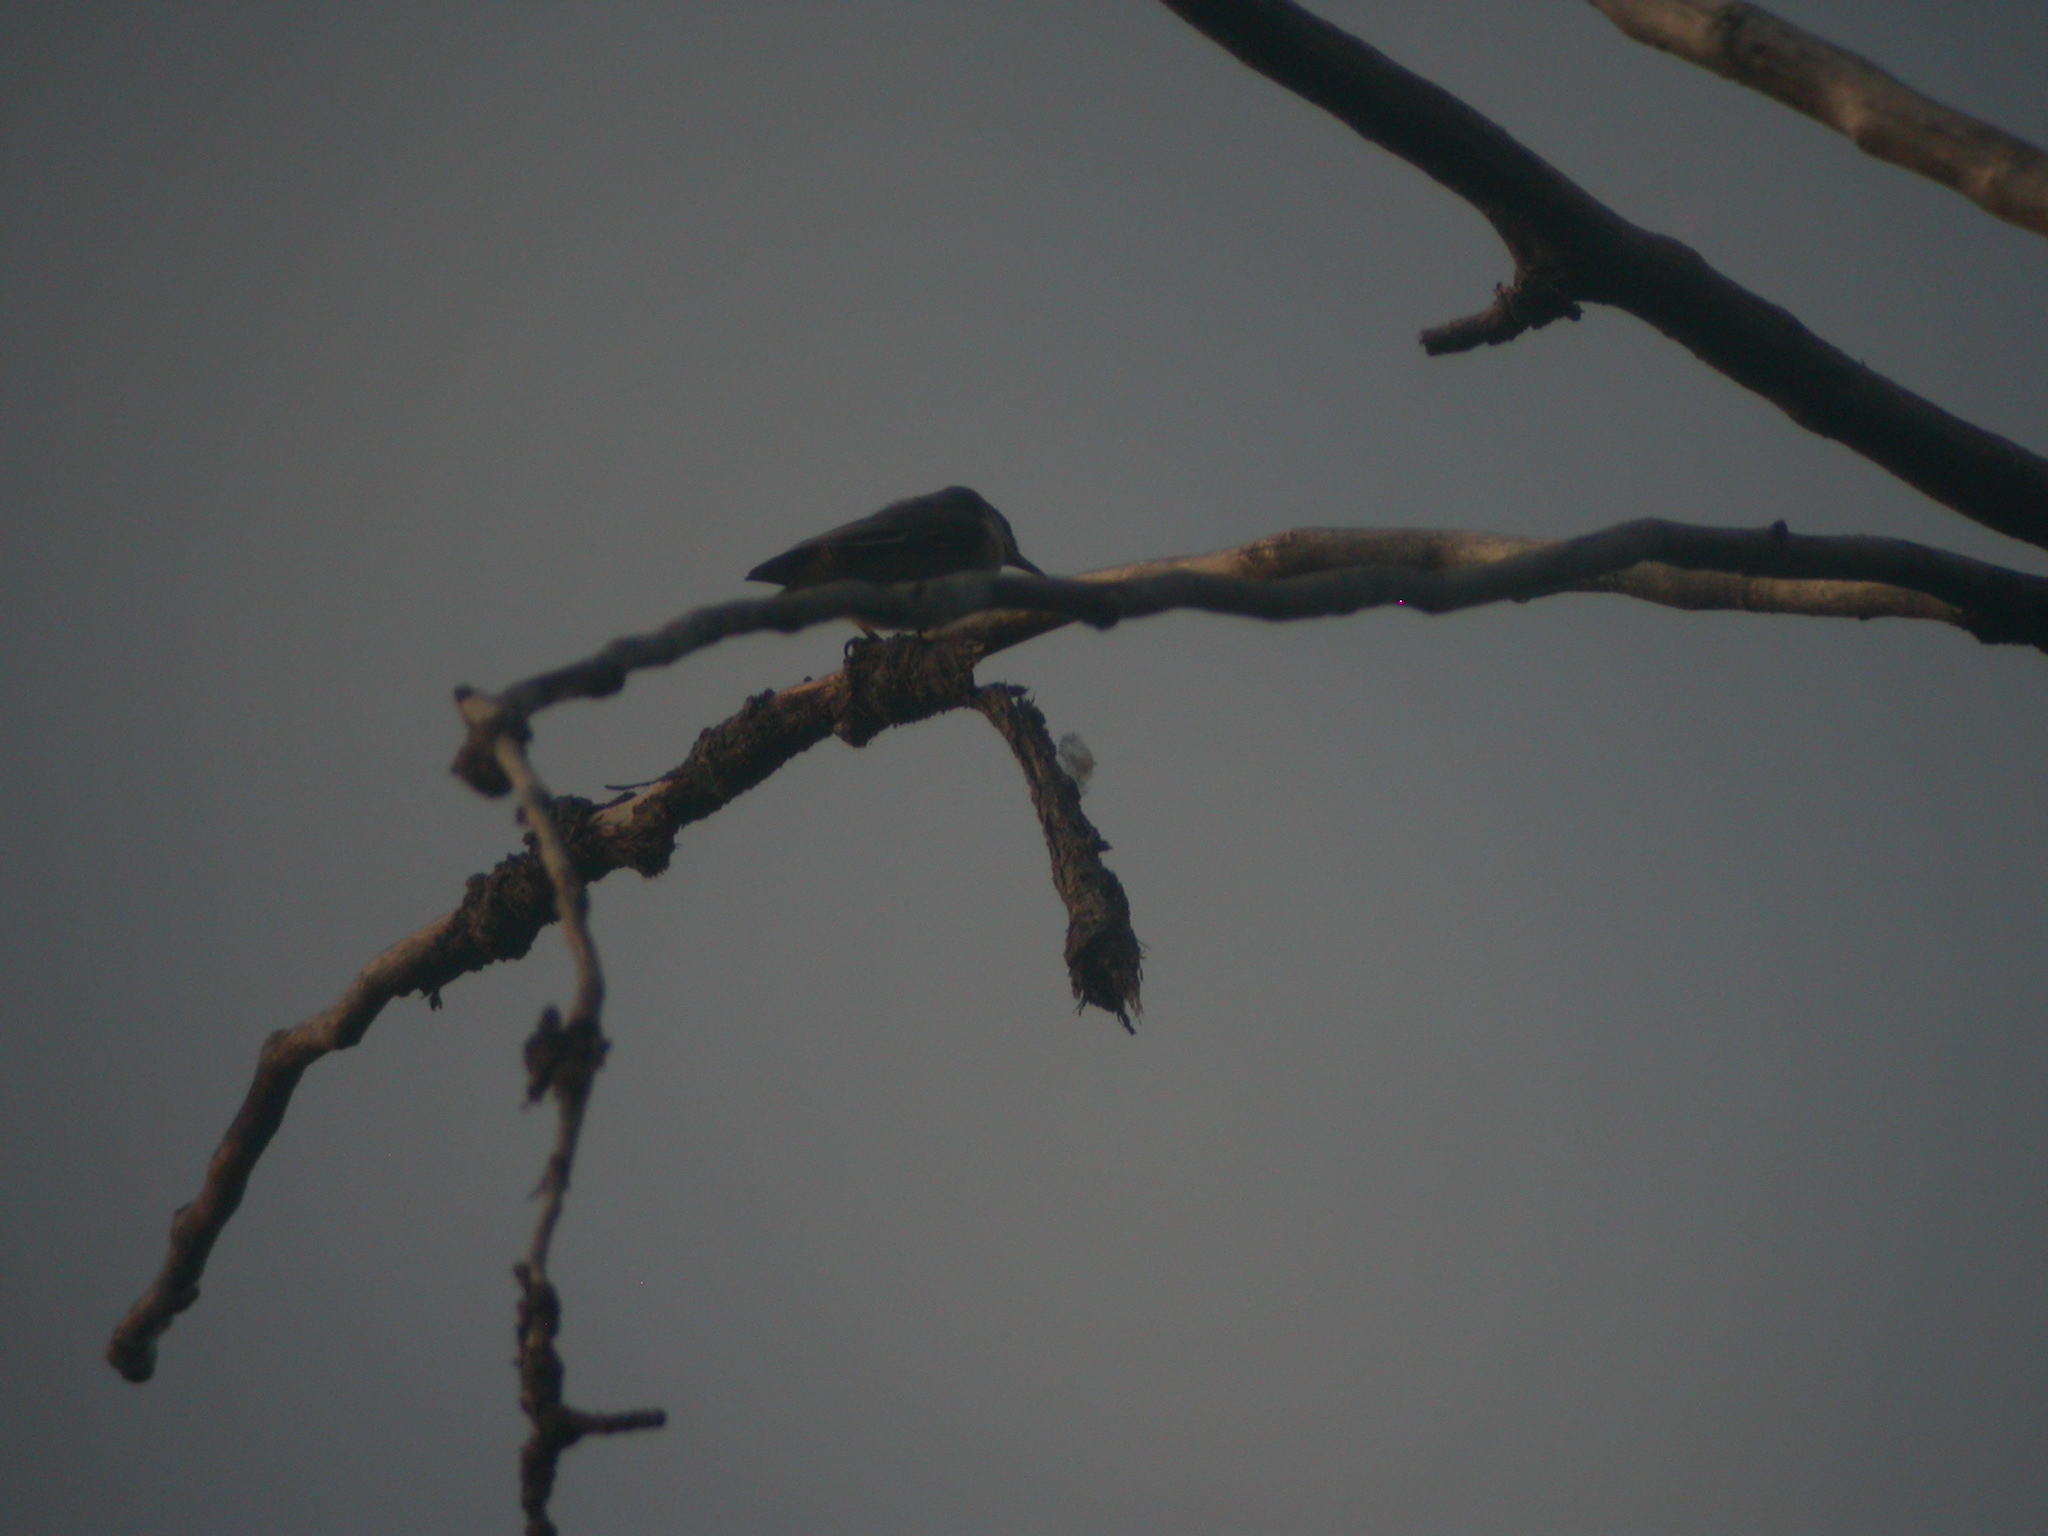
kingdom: Animalia
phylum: Chordata
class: Aves
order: Passeriformes
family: Sittidae
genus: Sitta
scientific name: Sitta canadensis
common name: Red-breasted nuthatch
